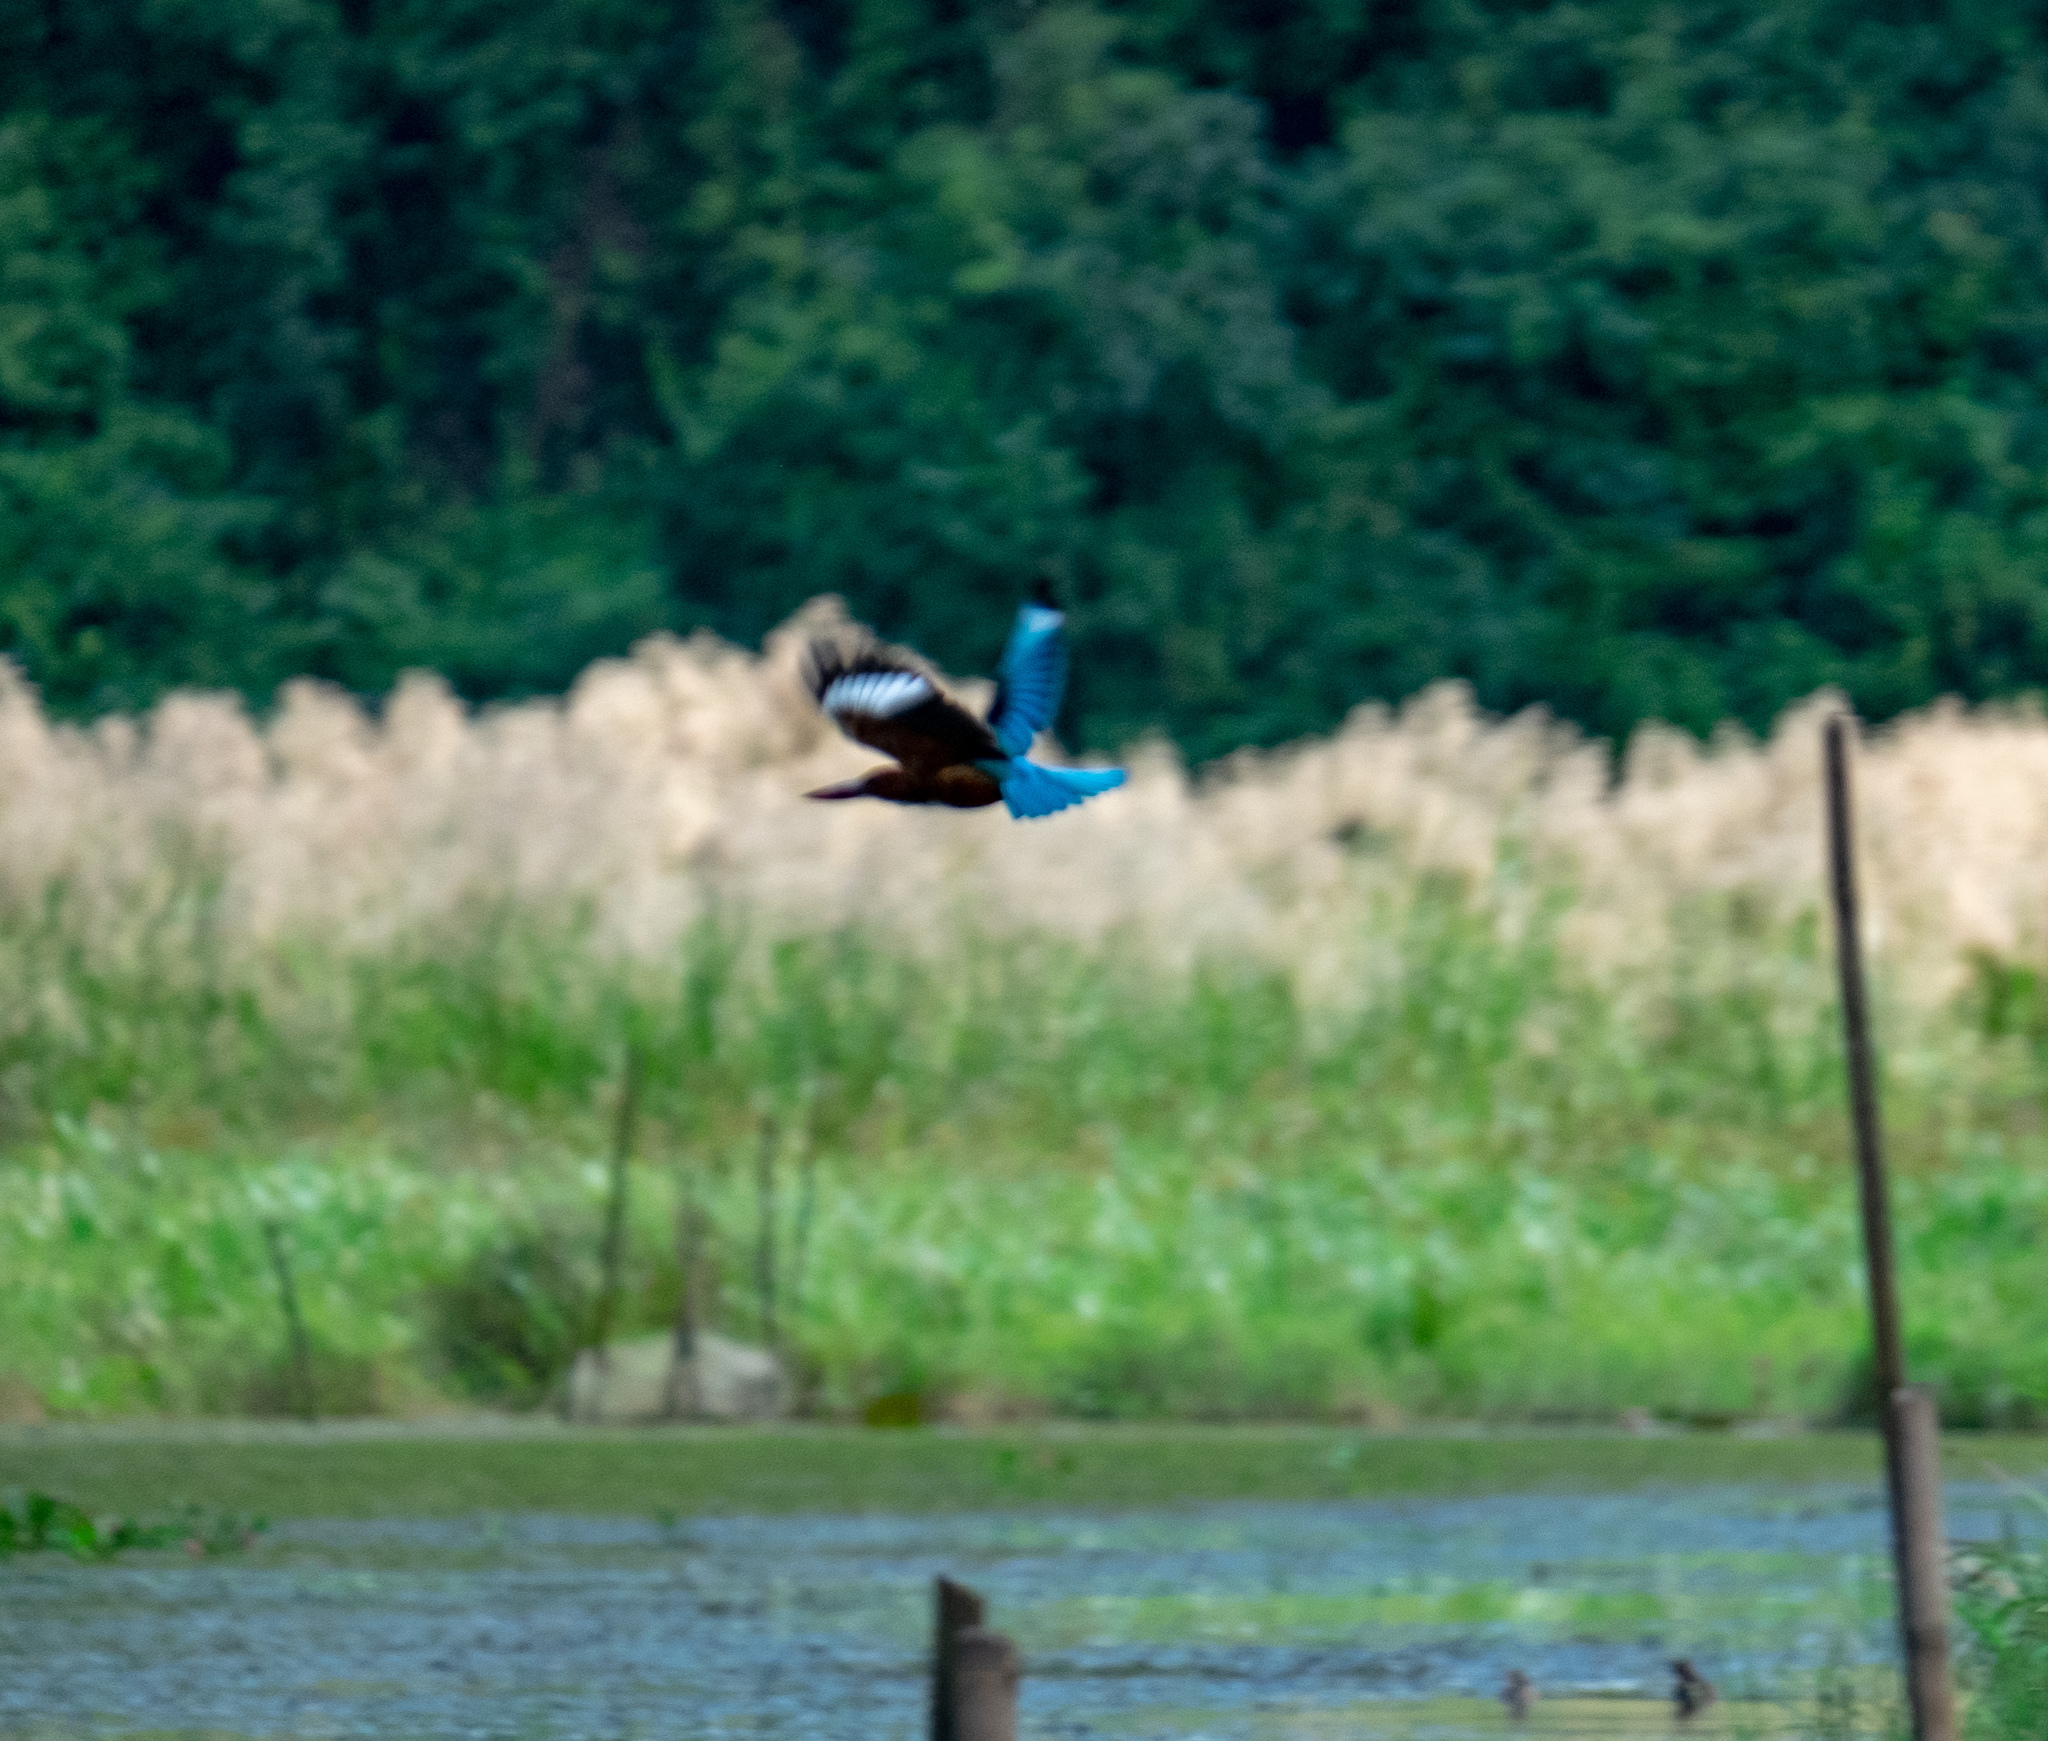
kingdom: Animalia
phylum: Chordata
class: Aves
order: Coraciiformes
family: Alcedinidae
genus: Halcyon
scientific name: Halcyon smyrnensis
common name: White-throated kingfisher
